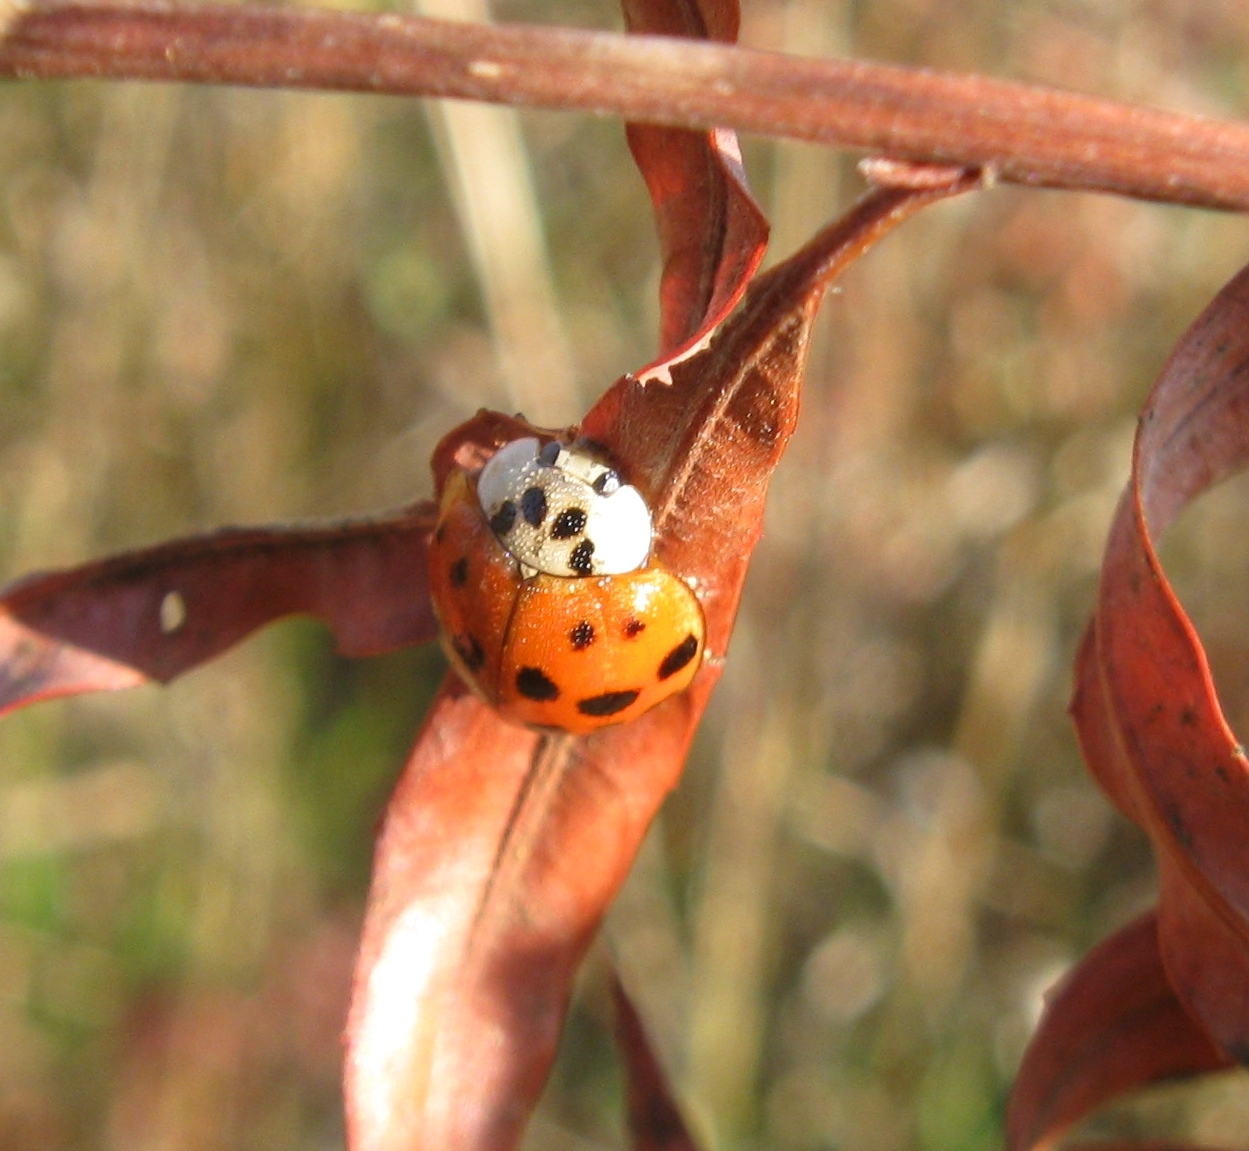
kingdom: Animalia
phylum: Arthropoda
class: Insecta
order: Coleoptera
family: Coccinellidae
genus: Harmonia
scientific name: Harmonia axyridis
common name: Harlequin ladybird
